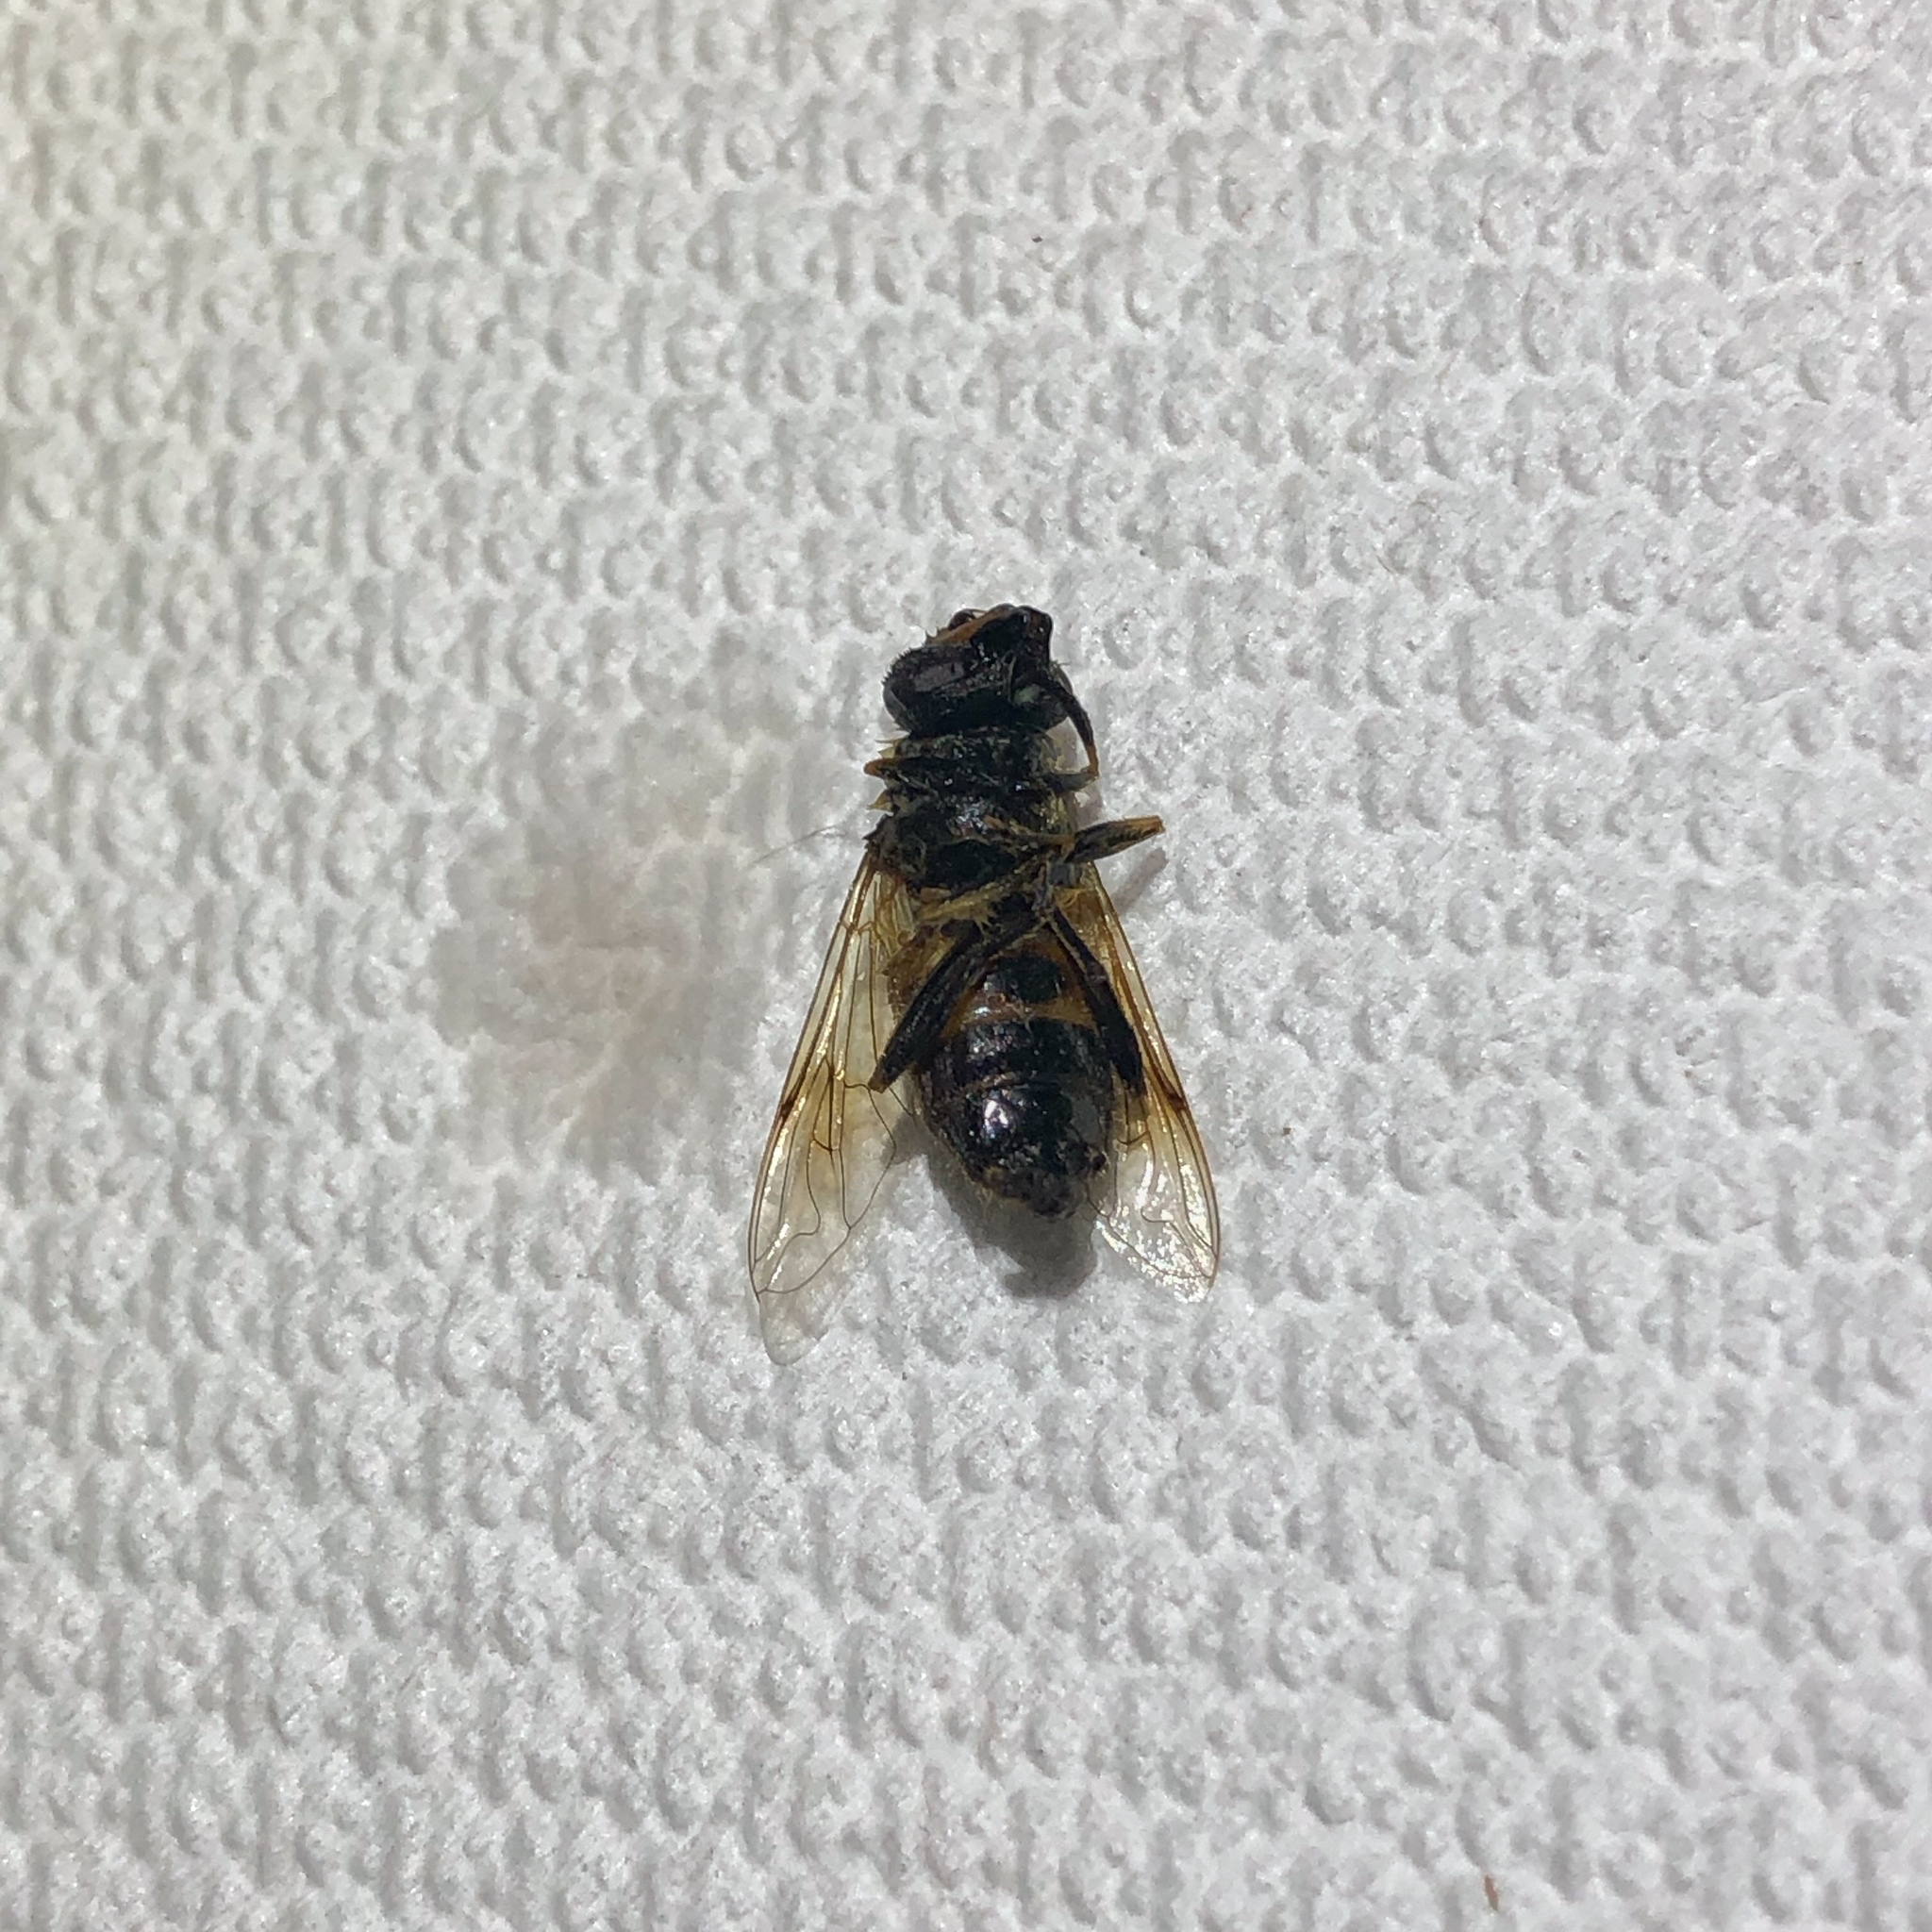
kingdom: Animalia
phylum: Arthropoda
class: Insecta
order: Diptera
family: Syrphidae
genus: Eristalis
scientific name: Eristalis tenax
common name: Drone fly
